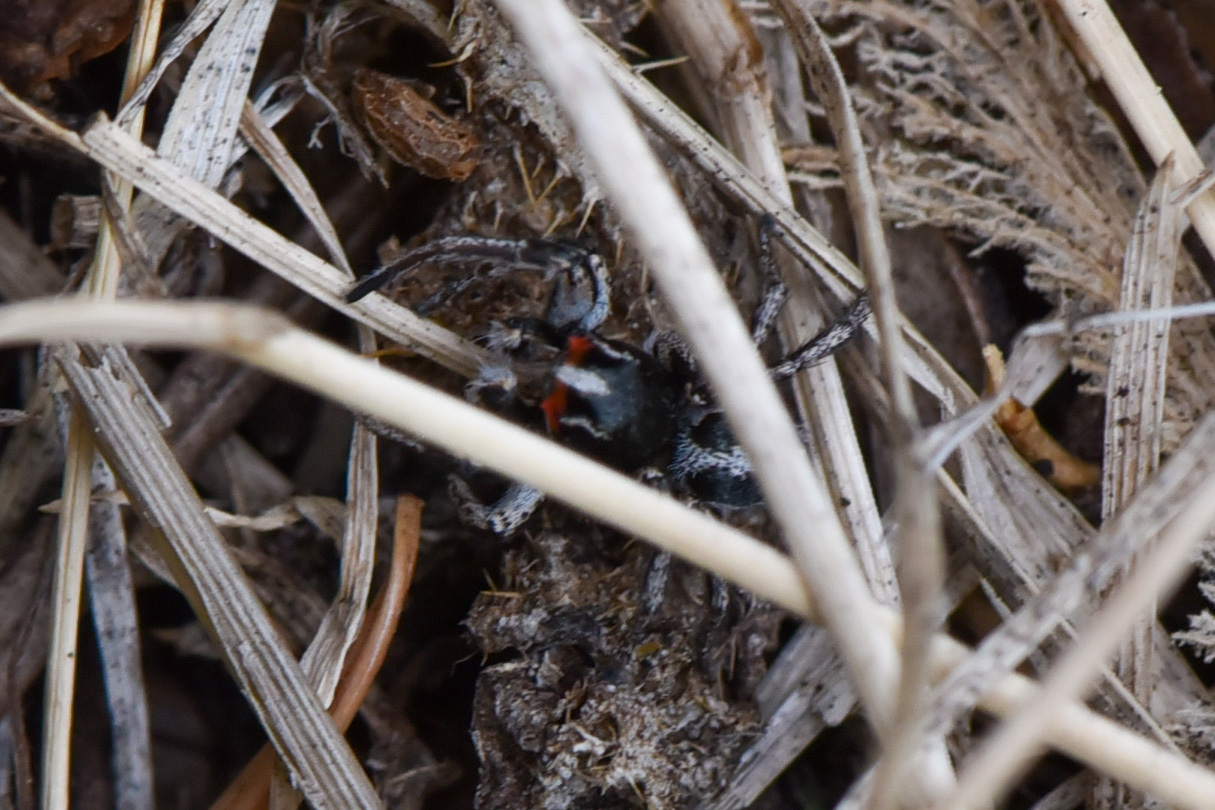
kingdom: Animalia
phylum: Arthropoda
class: Arachnida
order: Araneae
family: Salticidae
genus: Habronattus
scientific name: Habronattus sansoni
